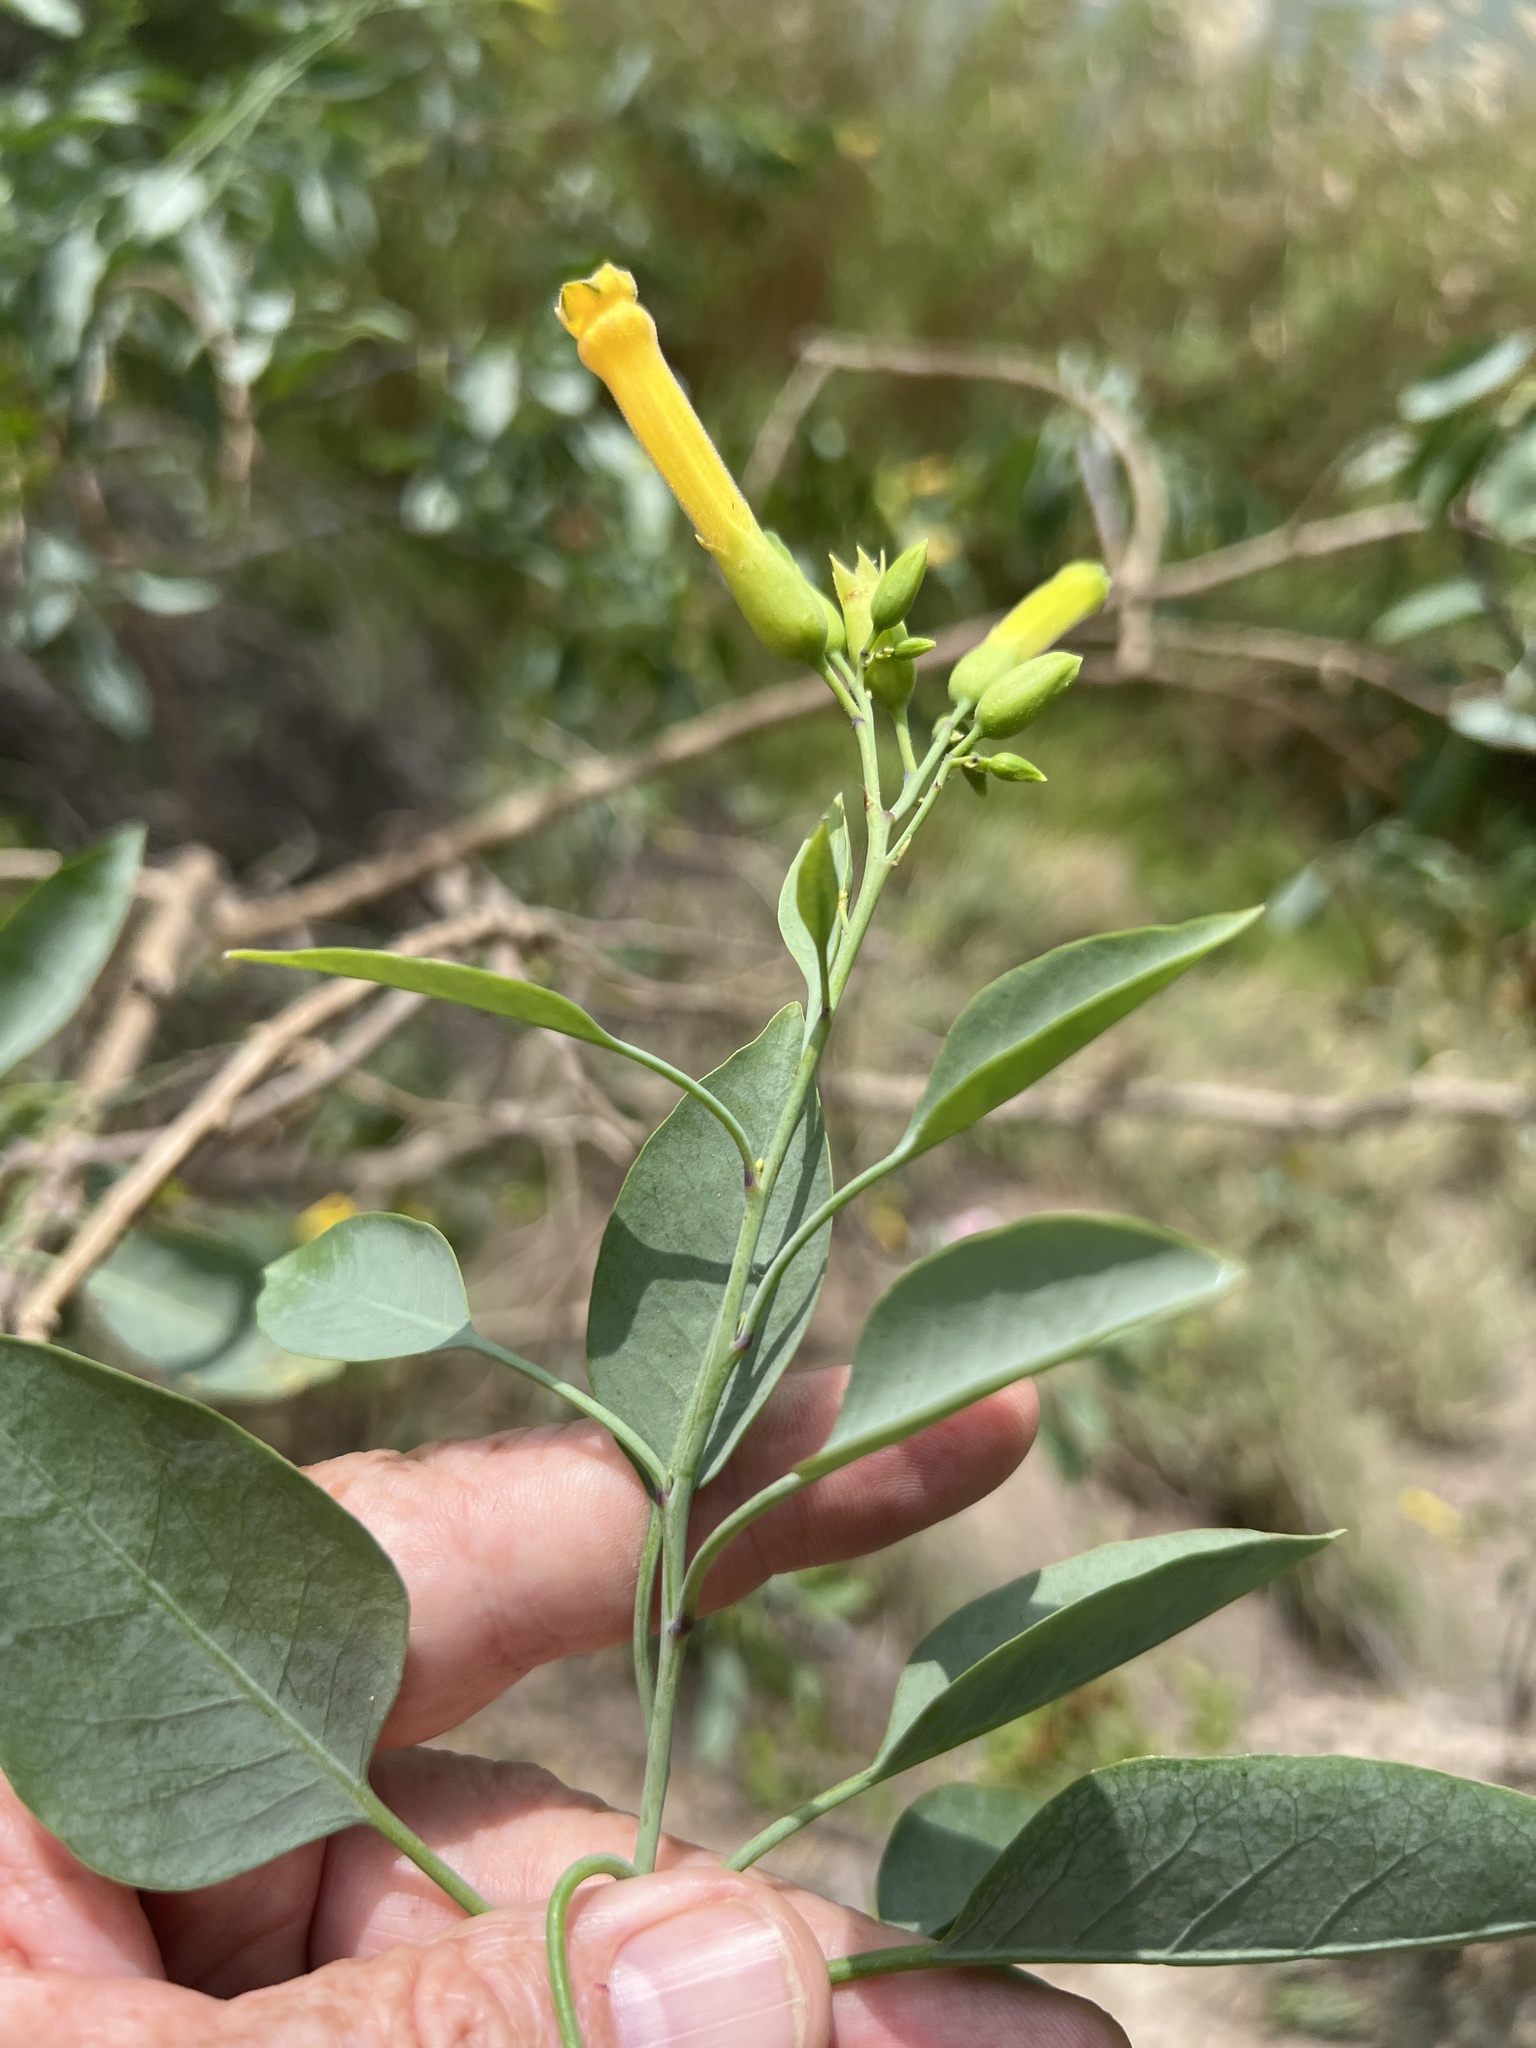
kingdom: Plantae
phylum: Tracheophyta
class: Magnoliopsida
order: Solanales
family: Solanaceae
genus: Nicotiana
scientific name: Nicotiana glauca
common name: Tree tobacco
